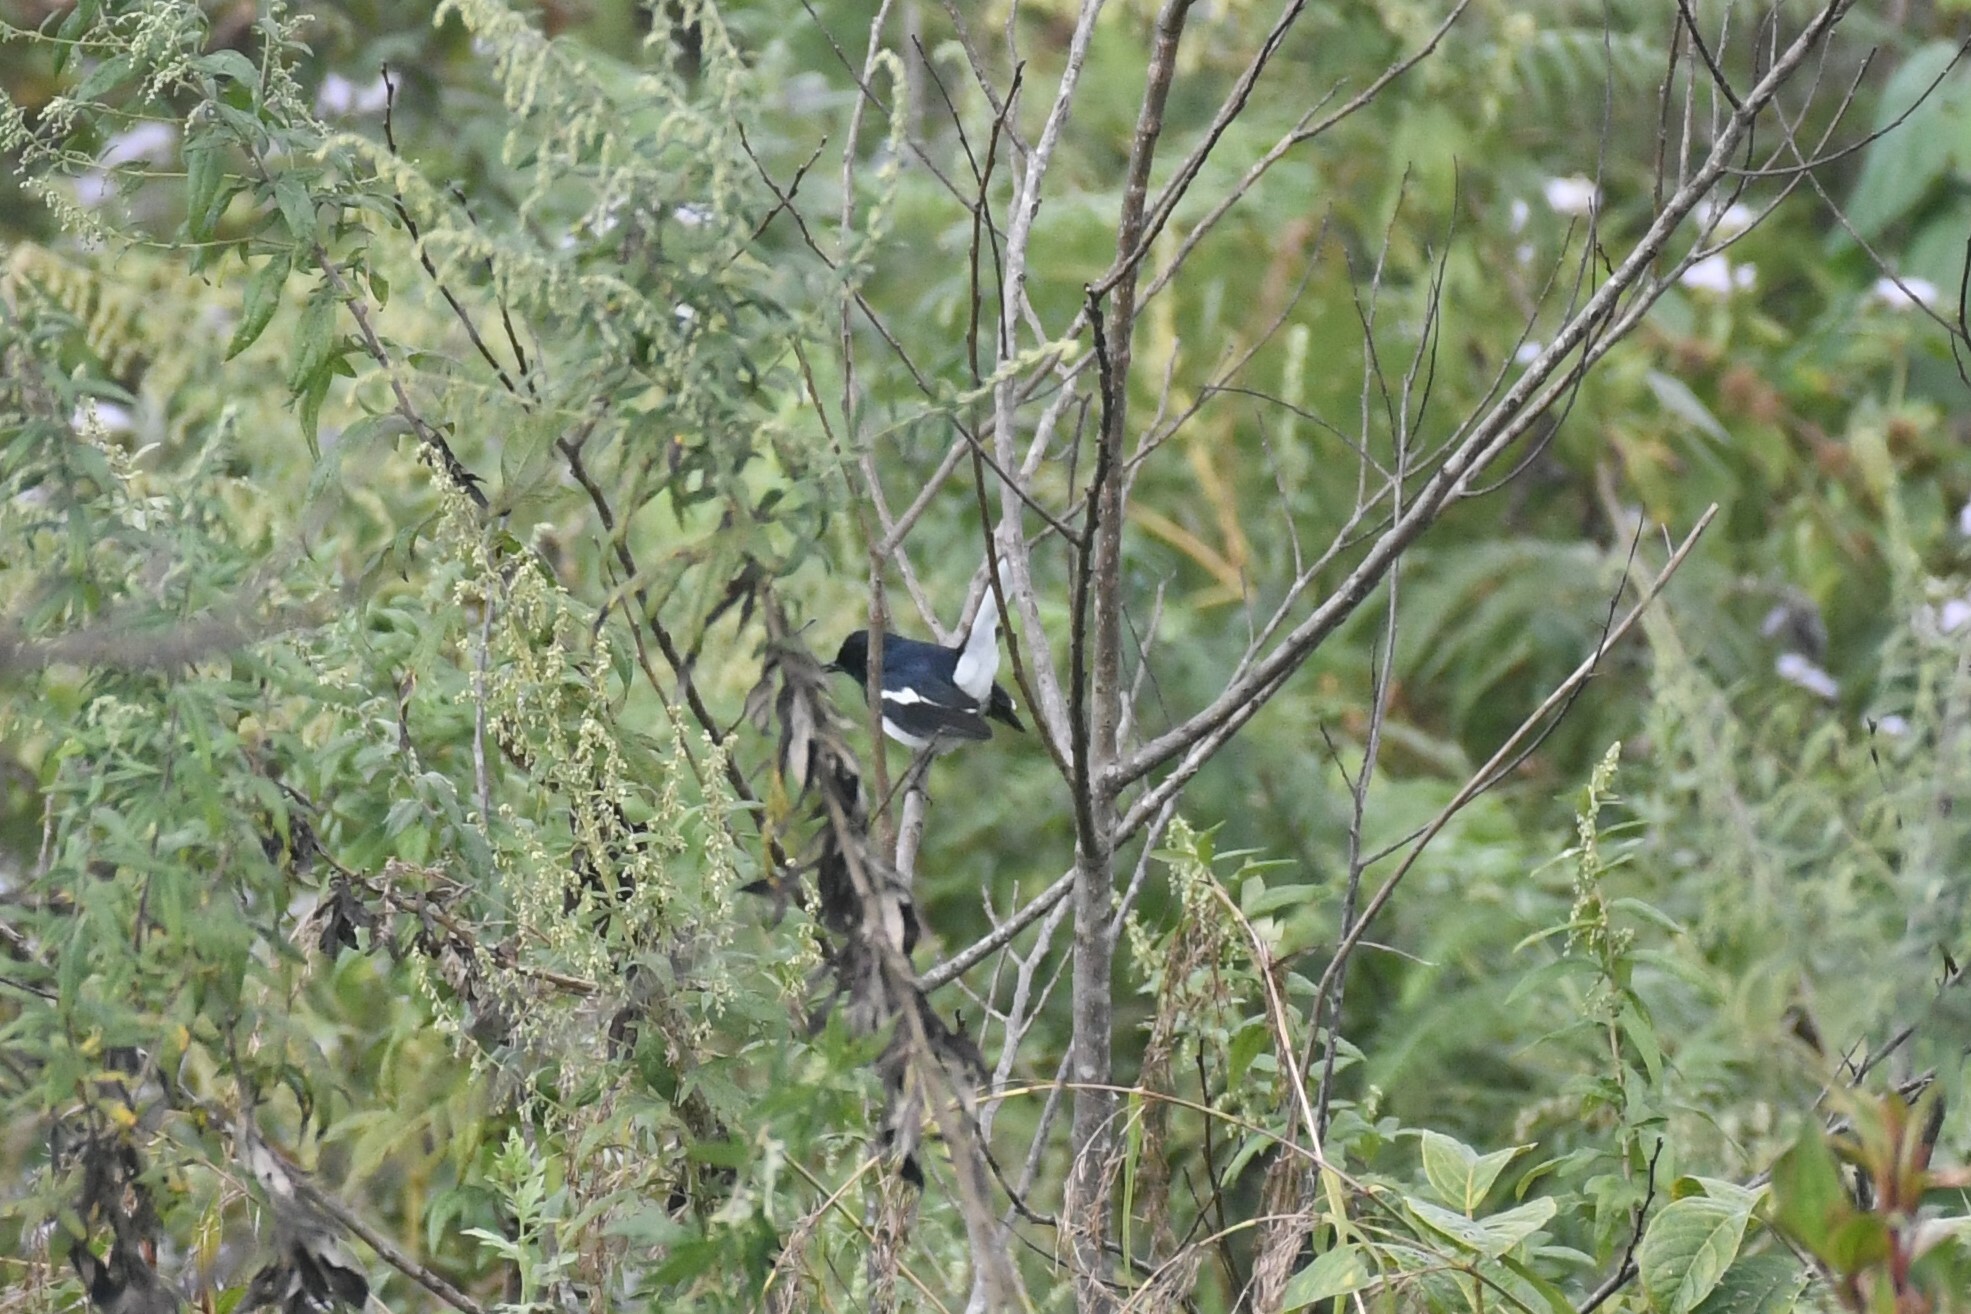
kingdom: Animalia
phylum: Chordata
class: Aves
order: Passeriformes
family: Muscicapidae
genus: Copsychus
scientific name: Copsychus saularis
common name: Oriental magpie-robin
